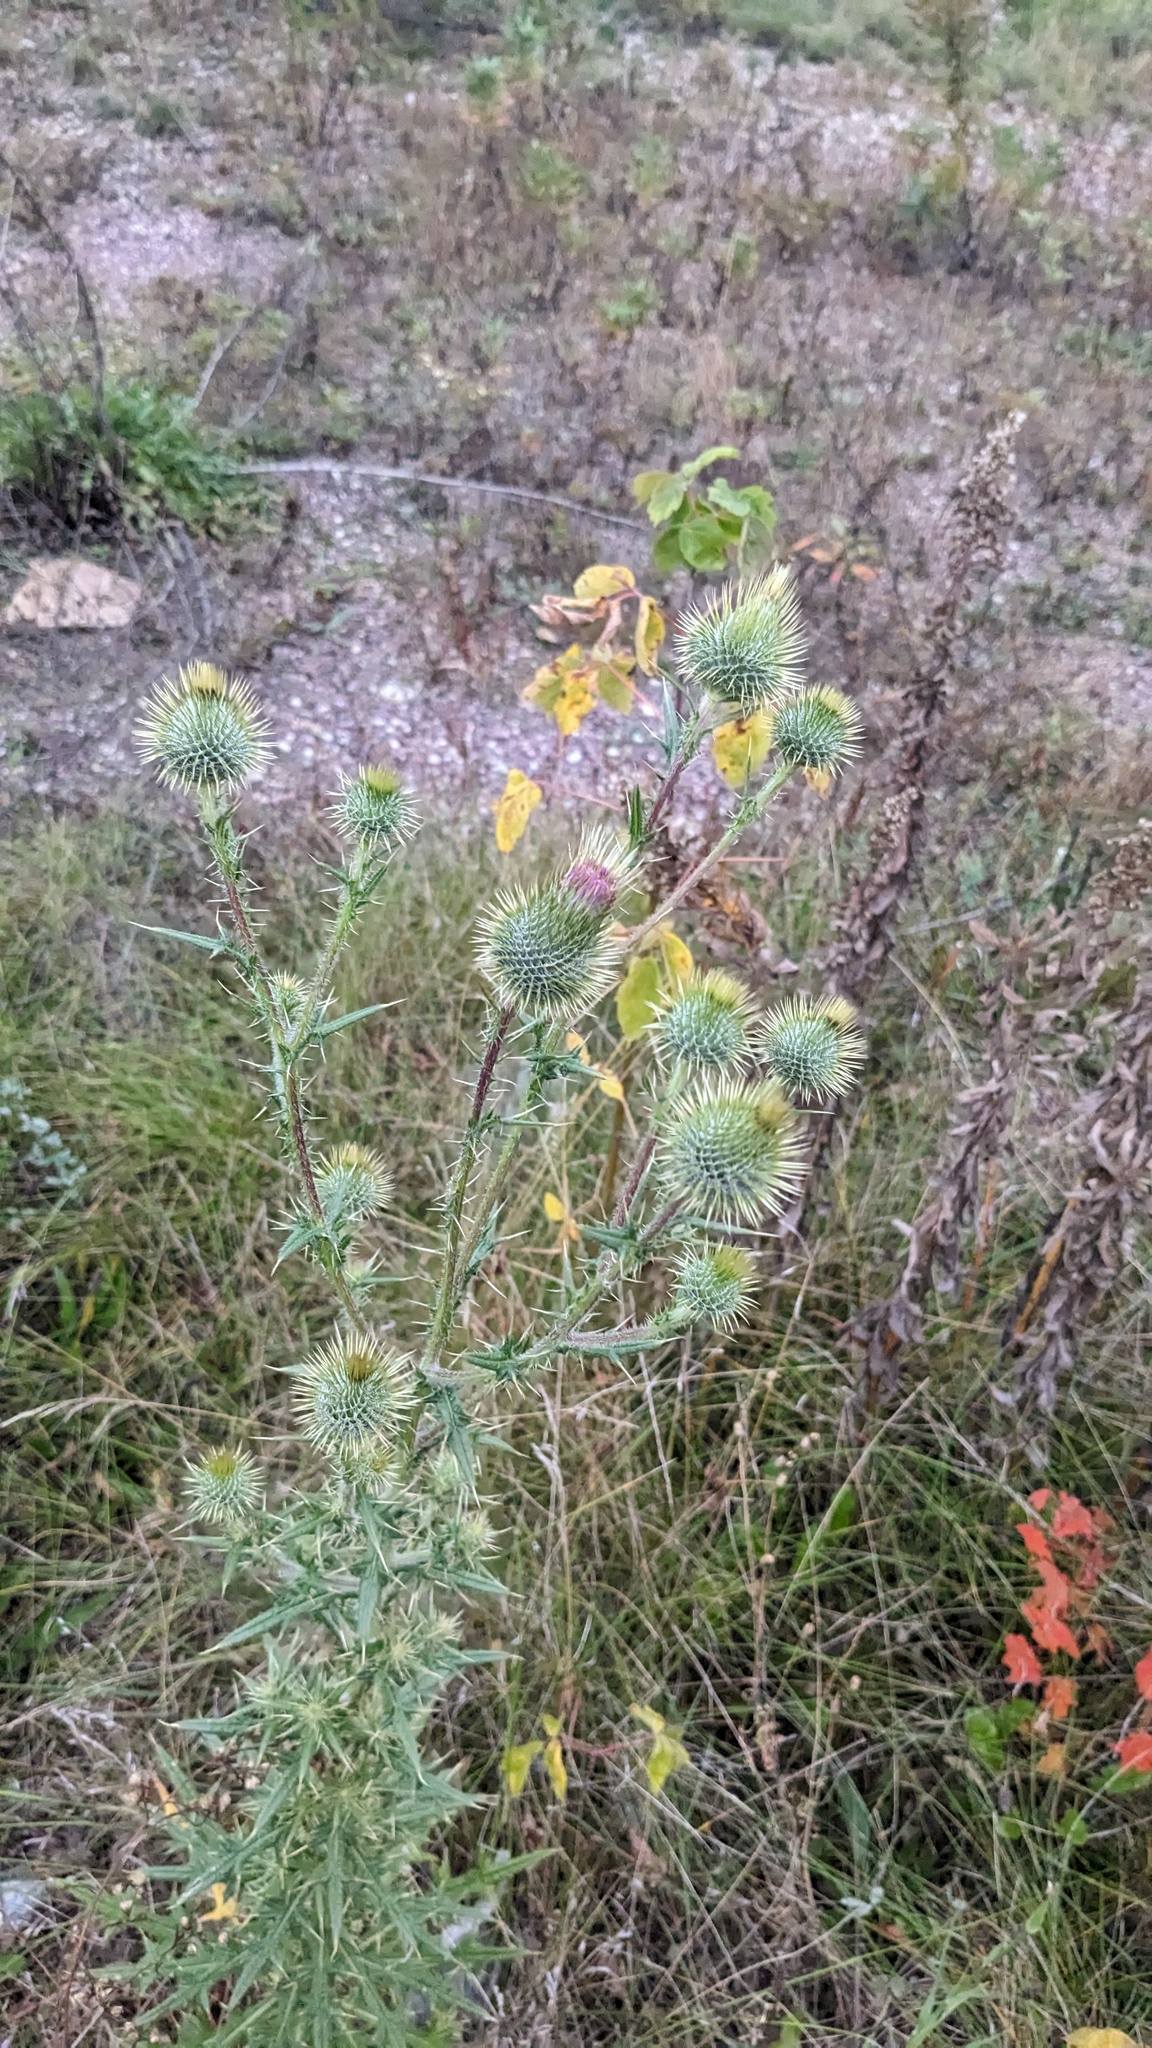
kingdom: Plantae
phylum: Tracheophyta
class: Magnoliopsida
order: Asterales
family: Asteraceae
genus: Cirsium
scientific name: Cirsium vulgare
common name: Bull thistle
